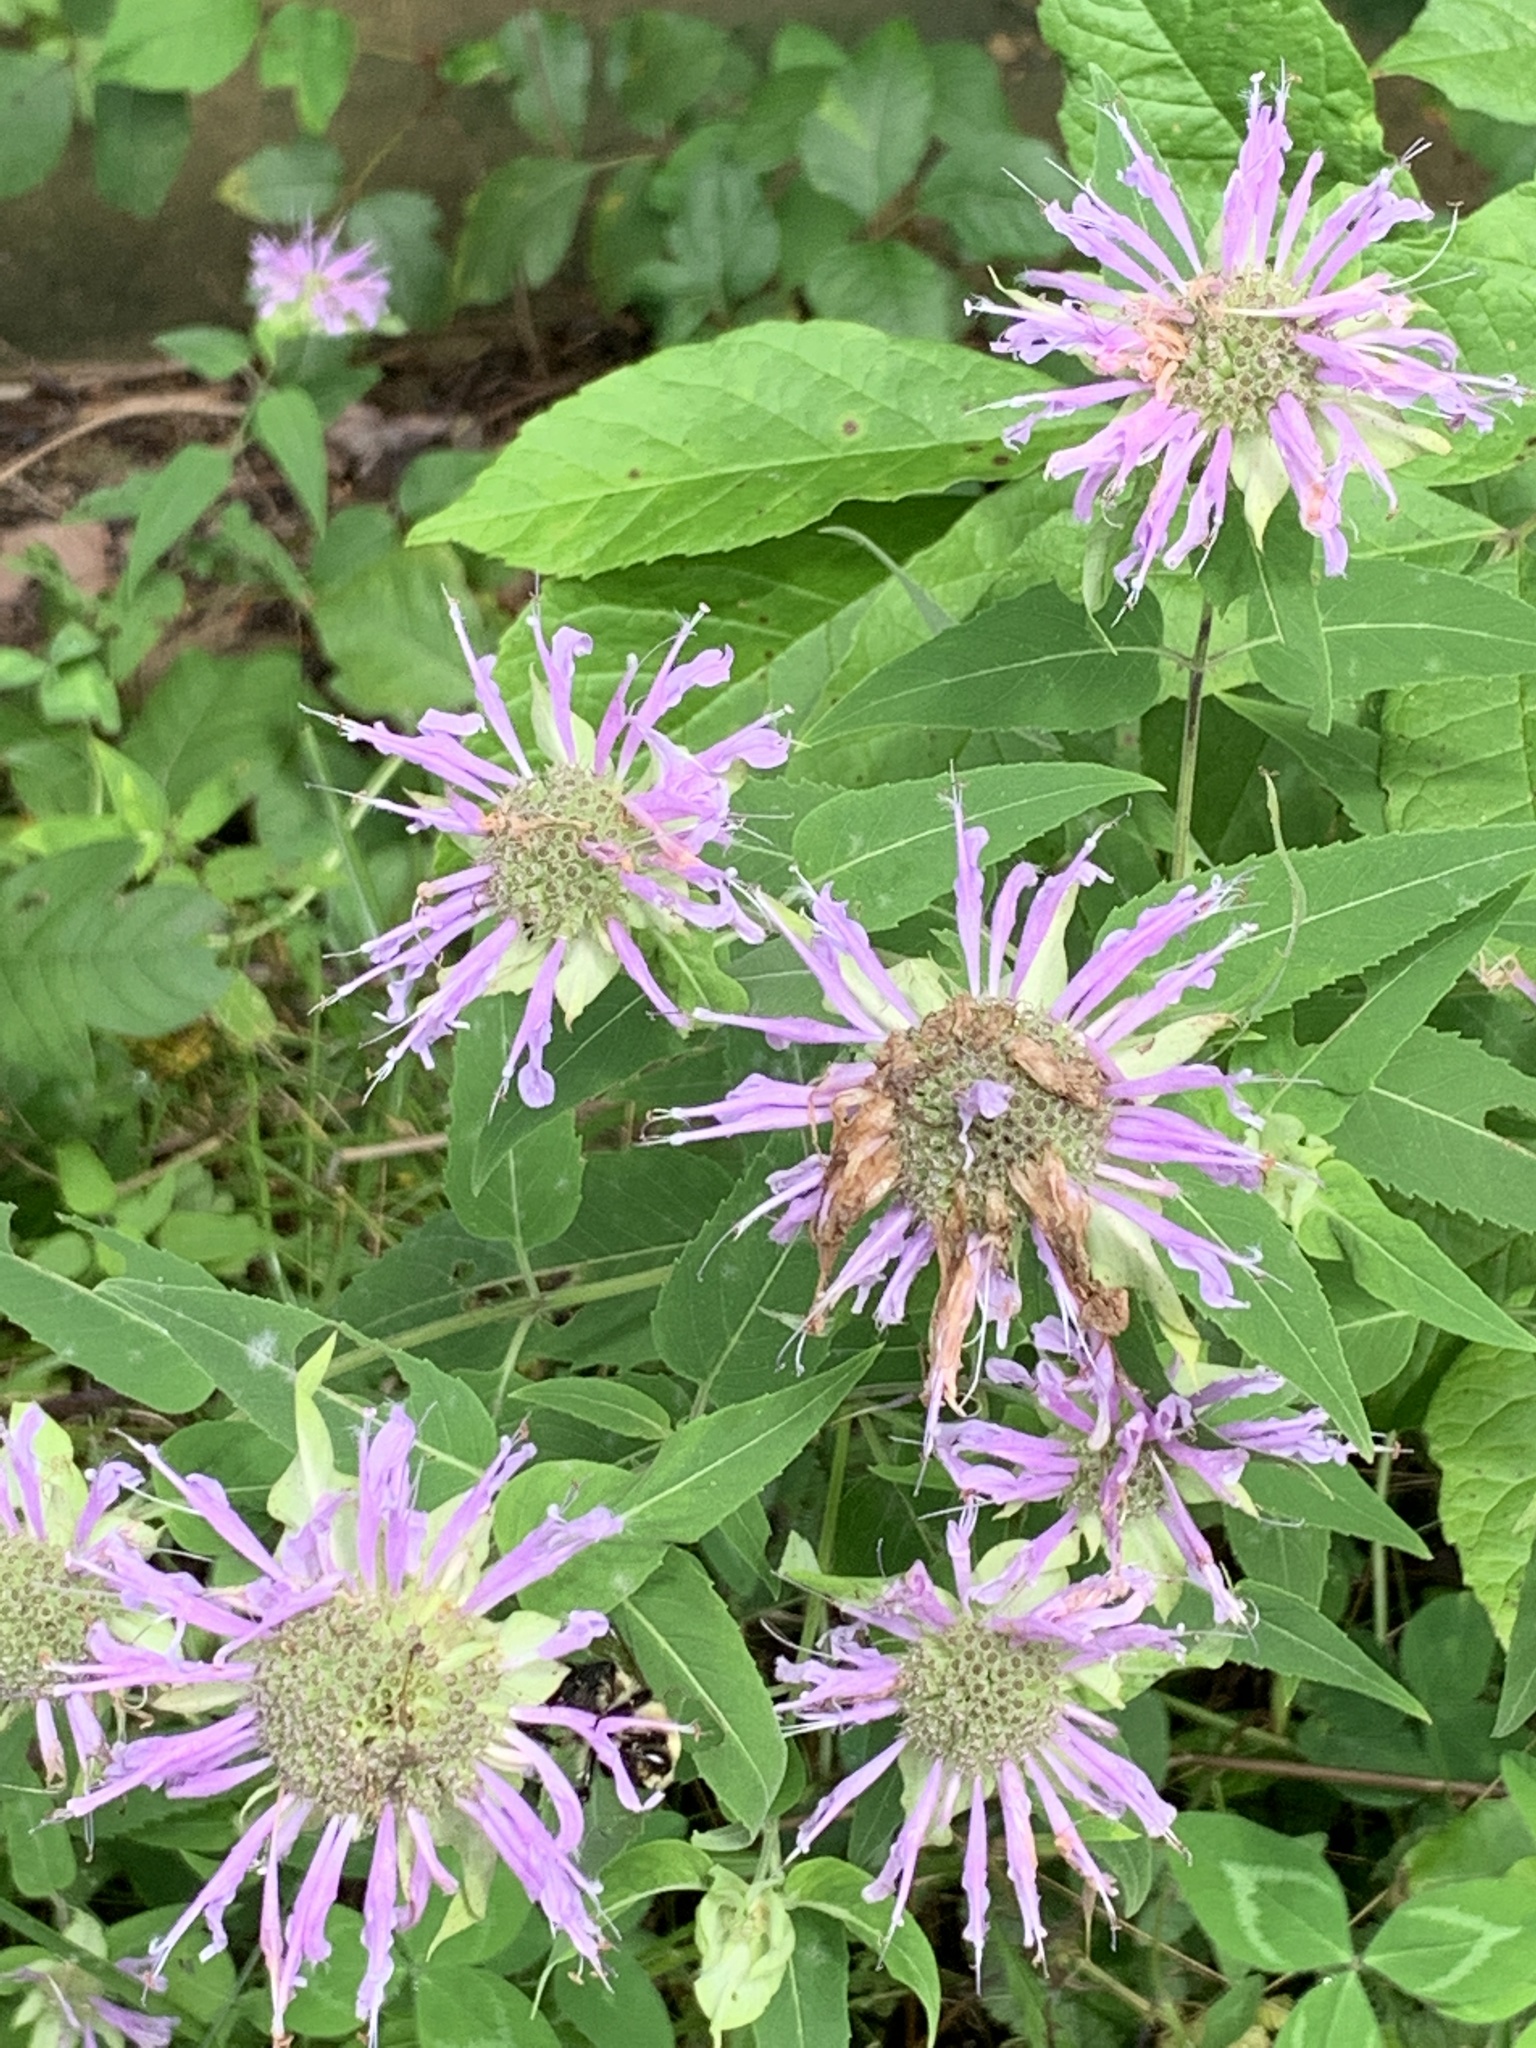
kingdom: Plantae
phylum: Tracheophyta
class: Magnoliopsida
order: Lamiales
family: Lamiaceae
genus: Monarda
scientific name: Monarda fistulosa
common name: Purple beebalm
